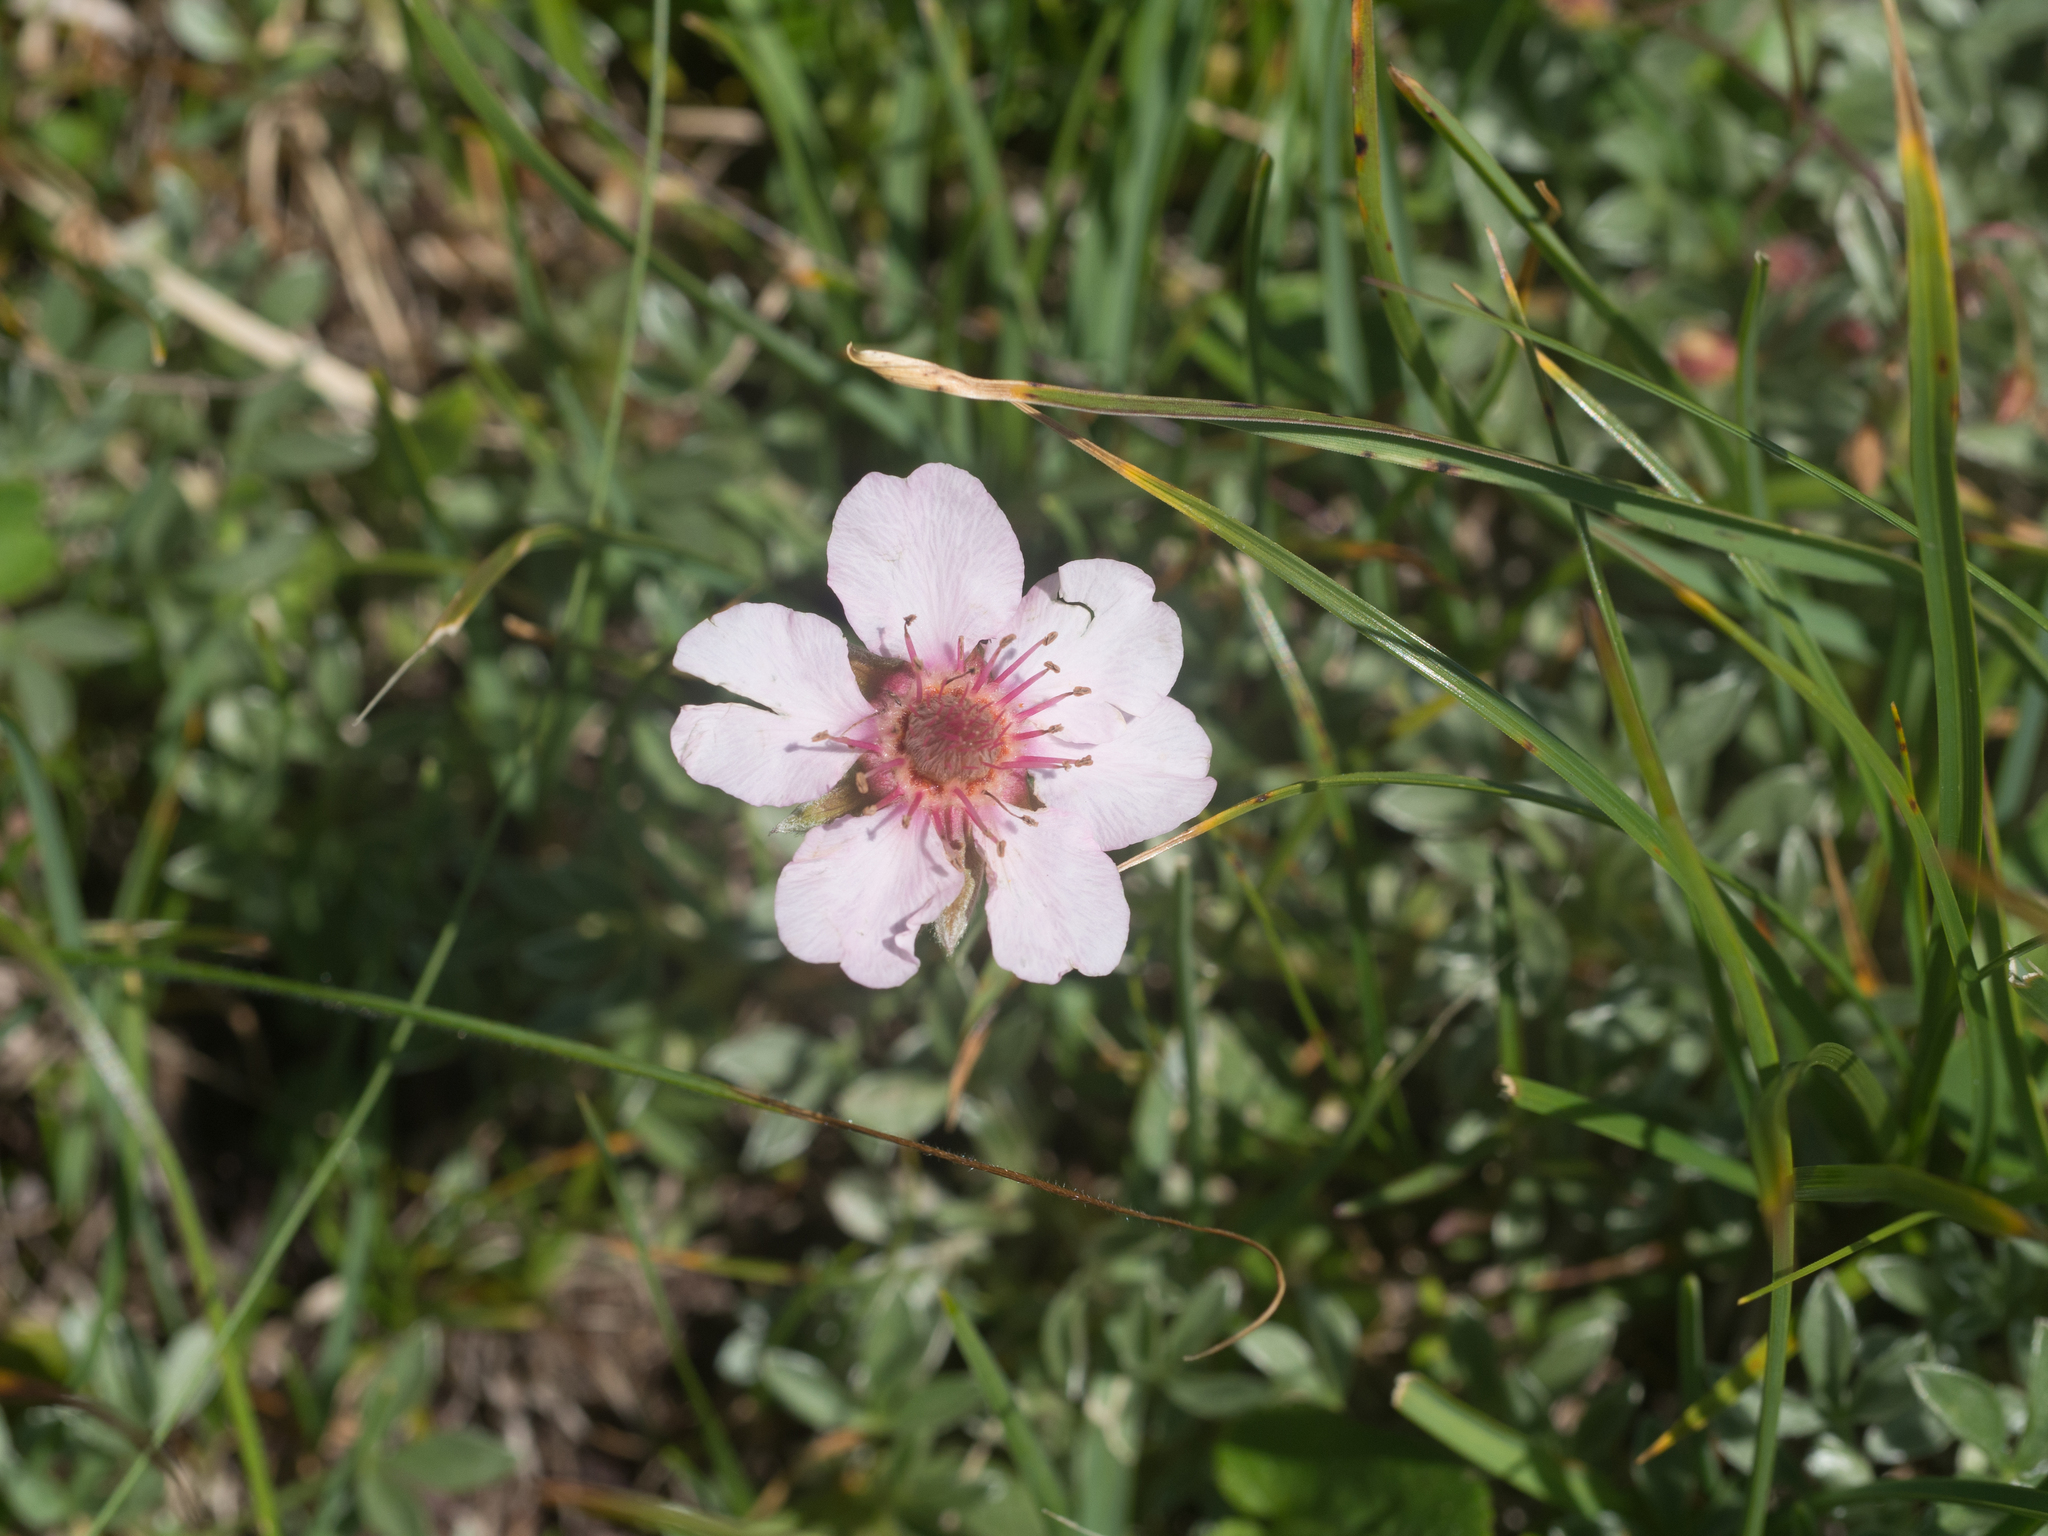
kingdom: Plantae
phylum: Tracheophyta
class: Magnoliopsida
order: Rosales
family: Rosaceae
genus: Potentilla
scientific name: Potentilla nitida
